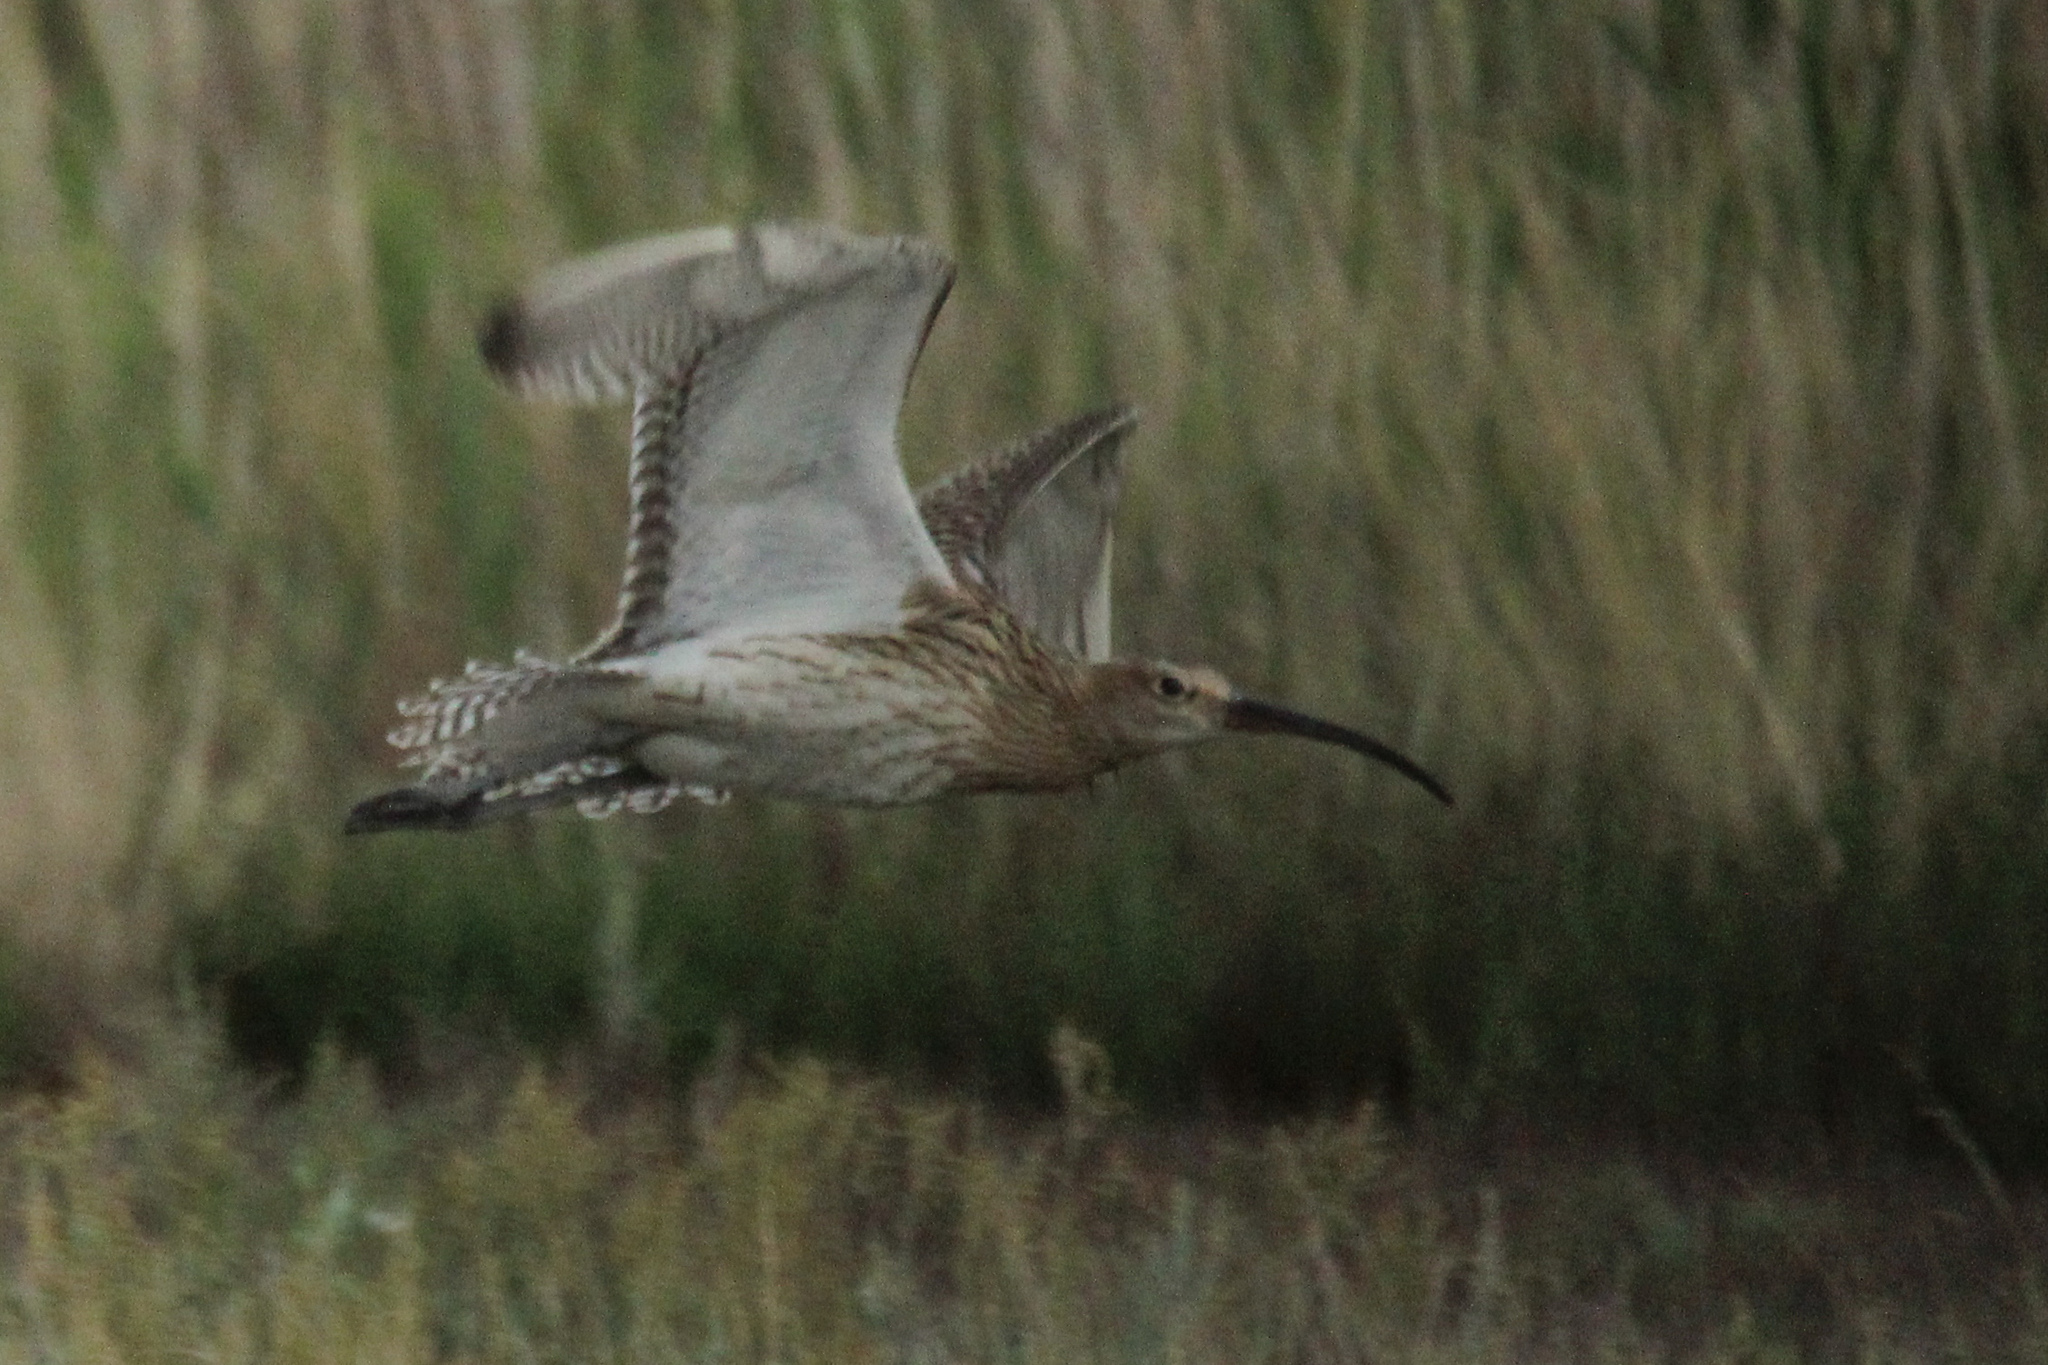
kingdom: Animalia
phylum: Chordata
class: Aves
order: Charadriiformes
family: Scolopacidae
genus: Numenius
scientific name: Numenius arquata
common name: Eurasian curlew
